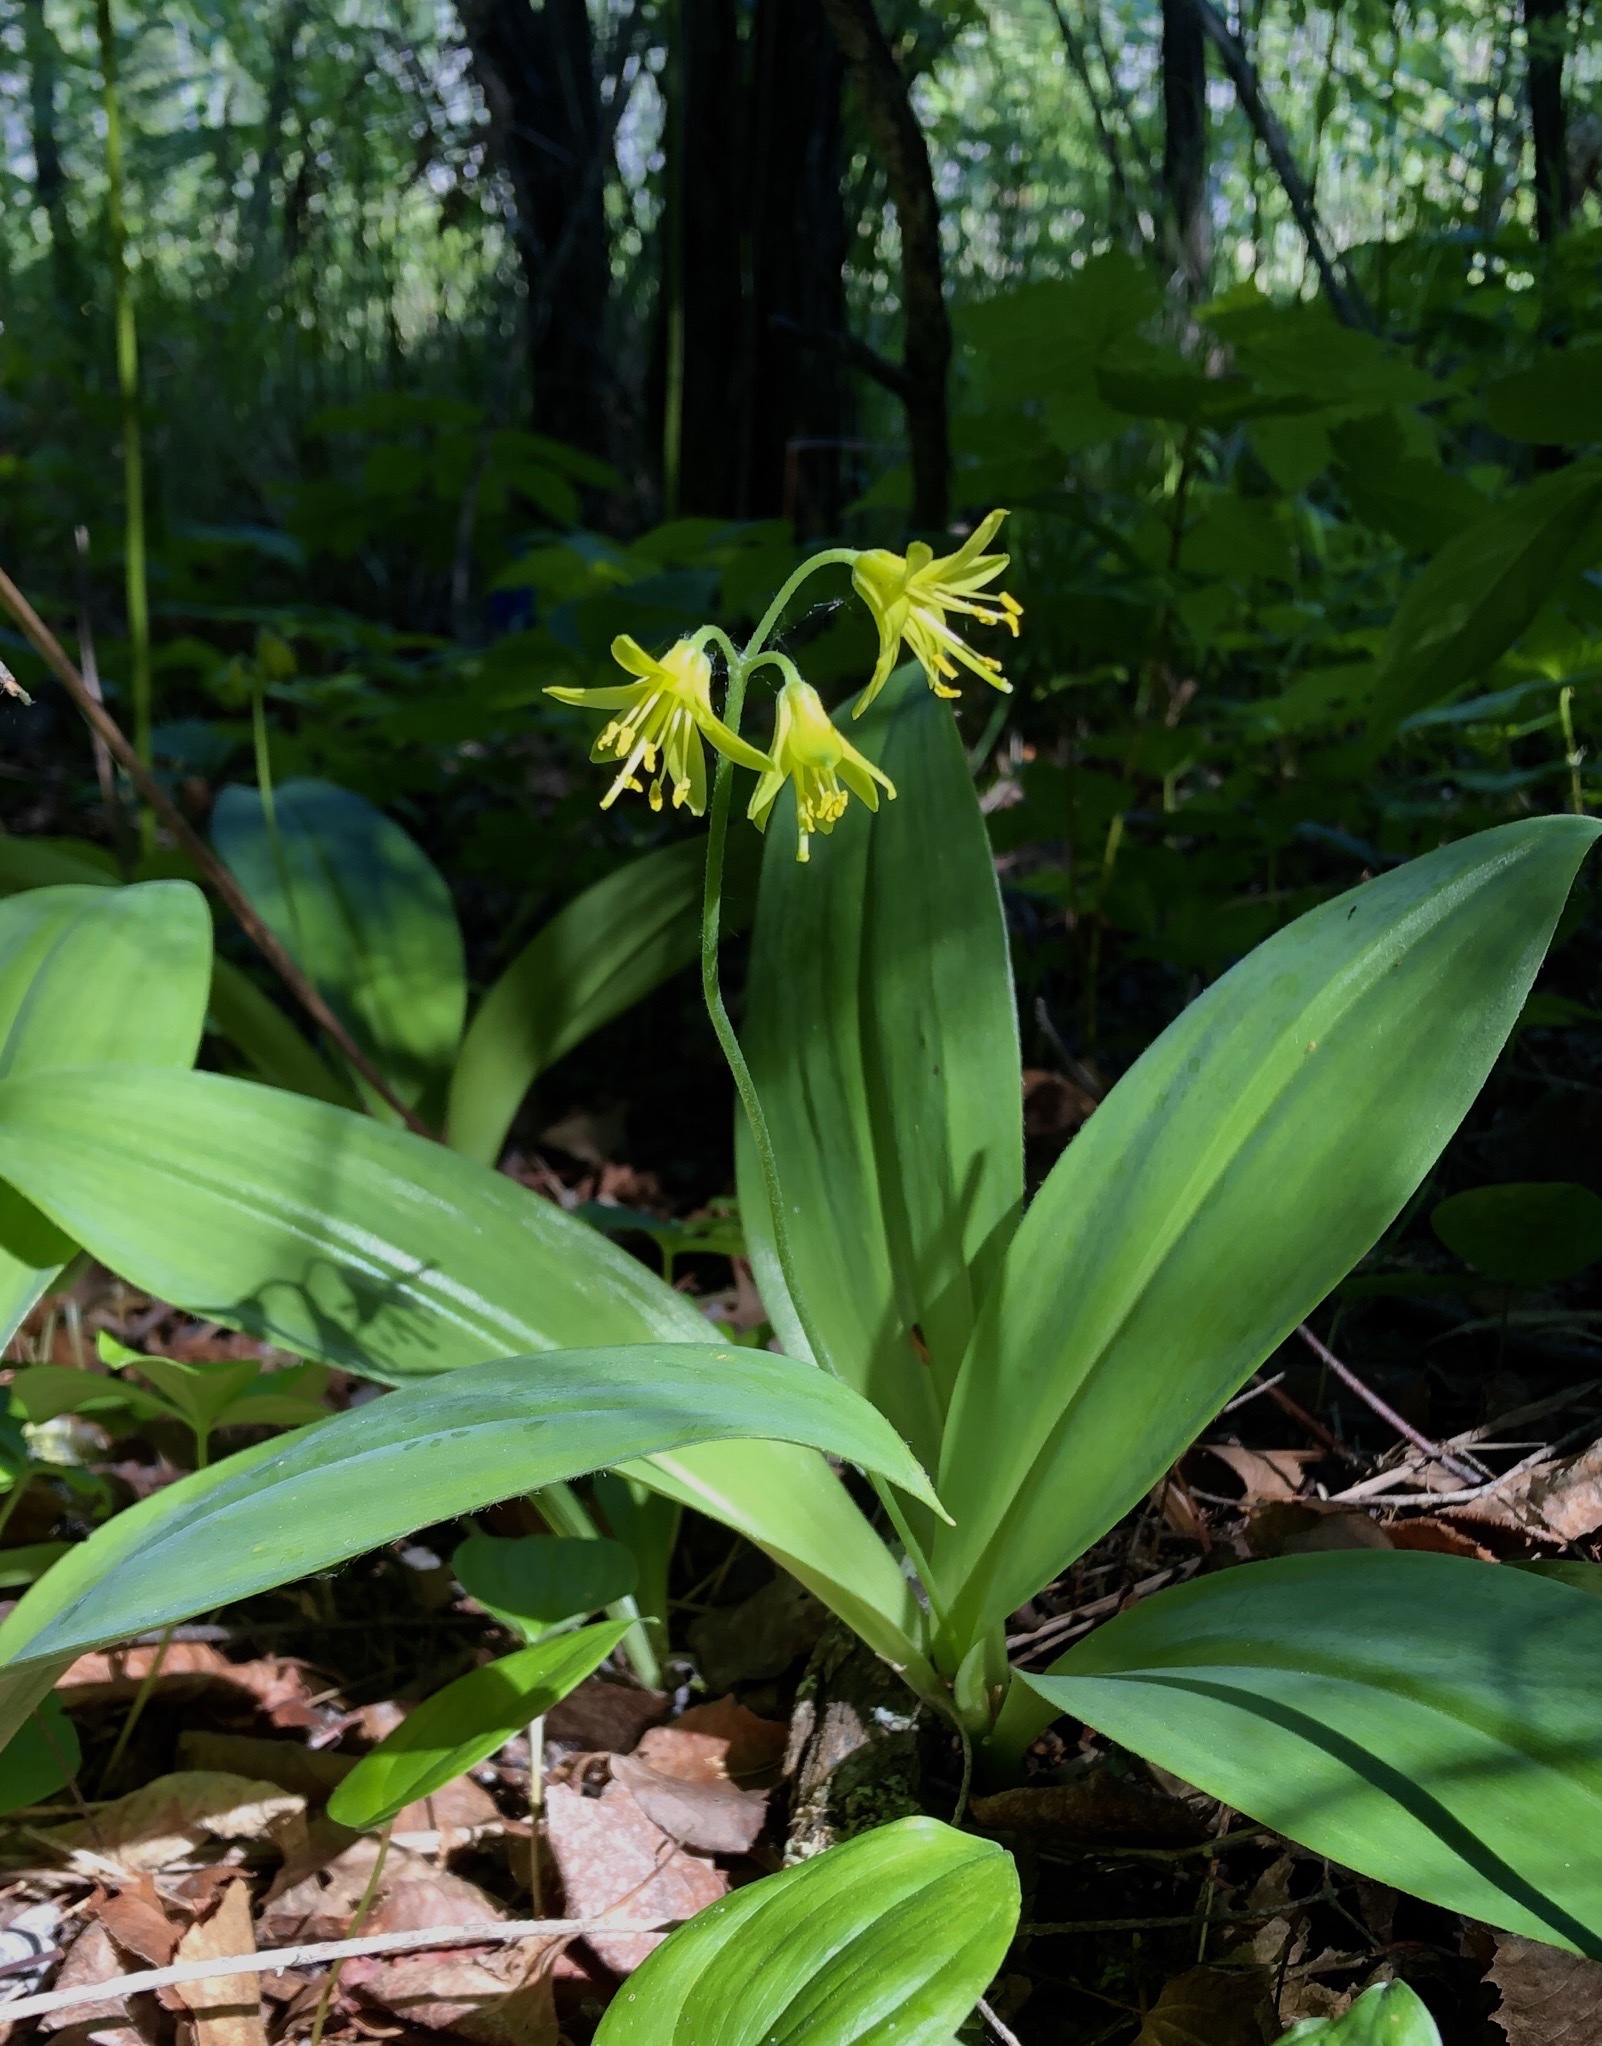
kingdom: Plantae
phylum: Tracheophyta
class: Liliopsida
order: Liliales
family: Liliaceae
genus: Clintonia
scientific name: Clintonia borealis
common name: Yellow clintonia
